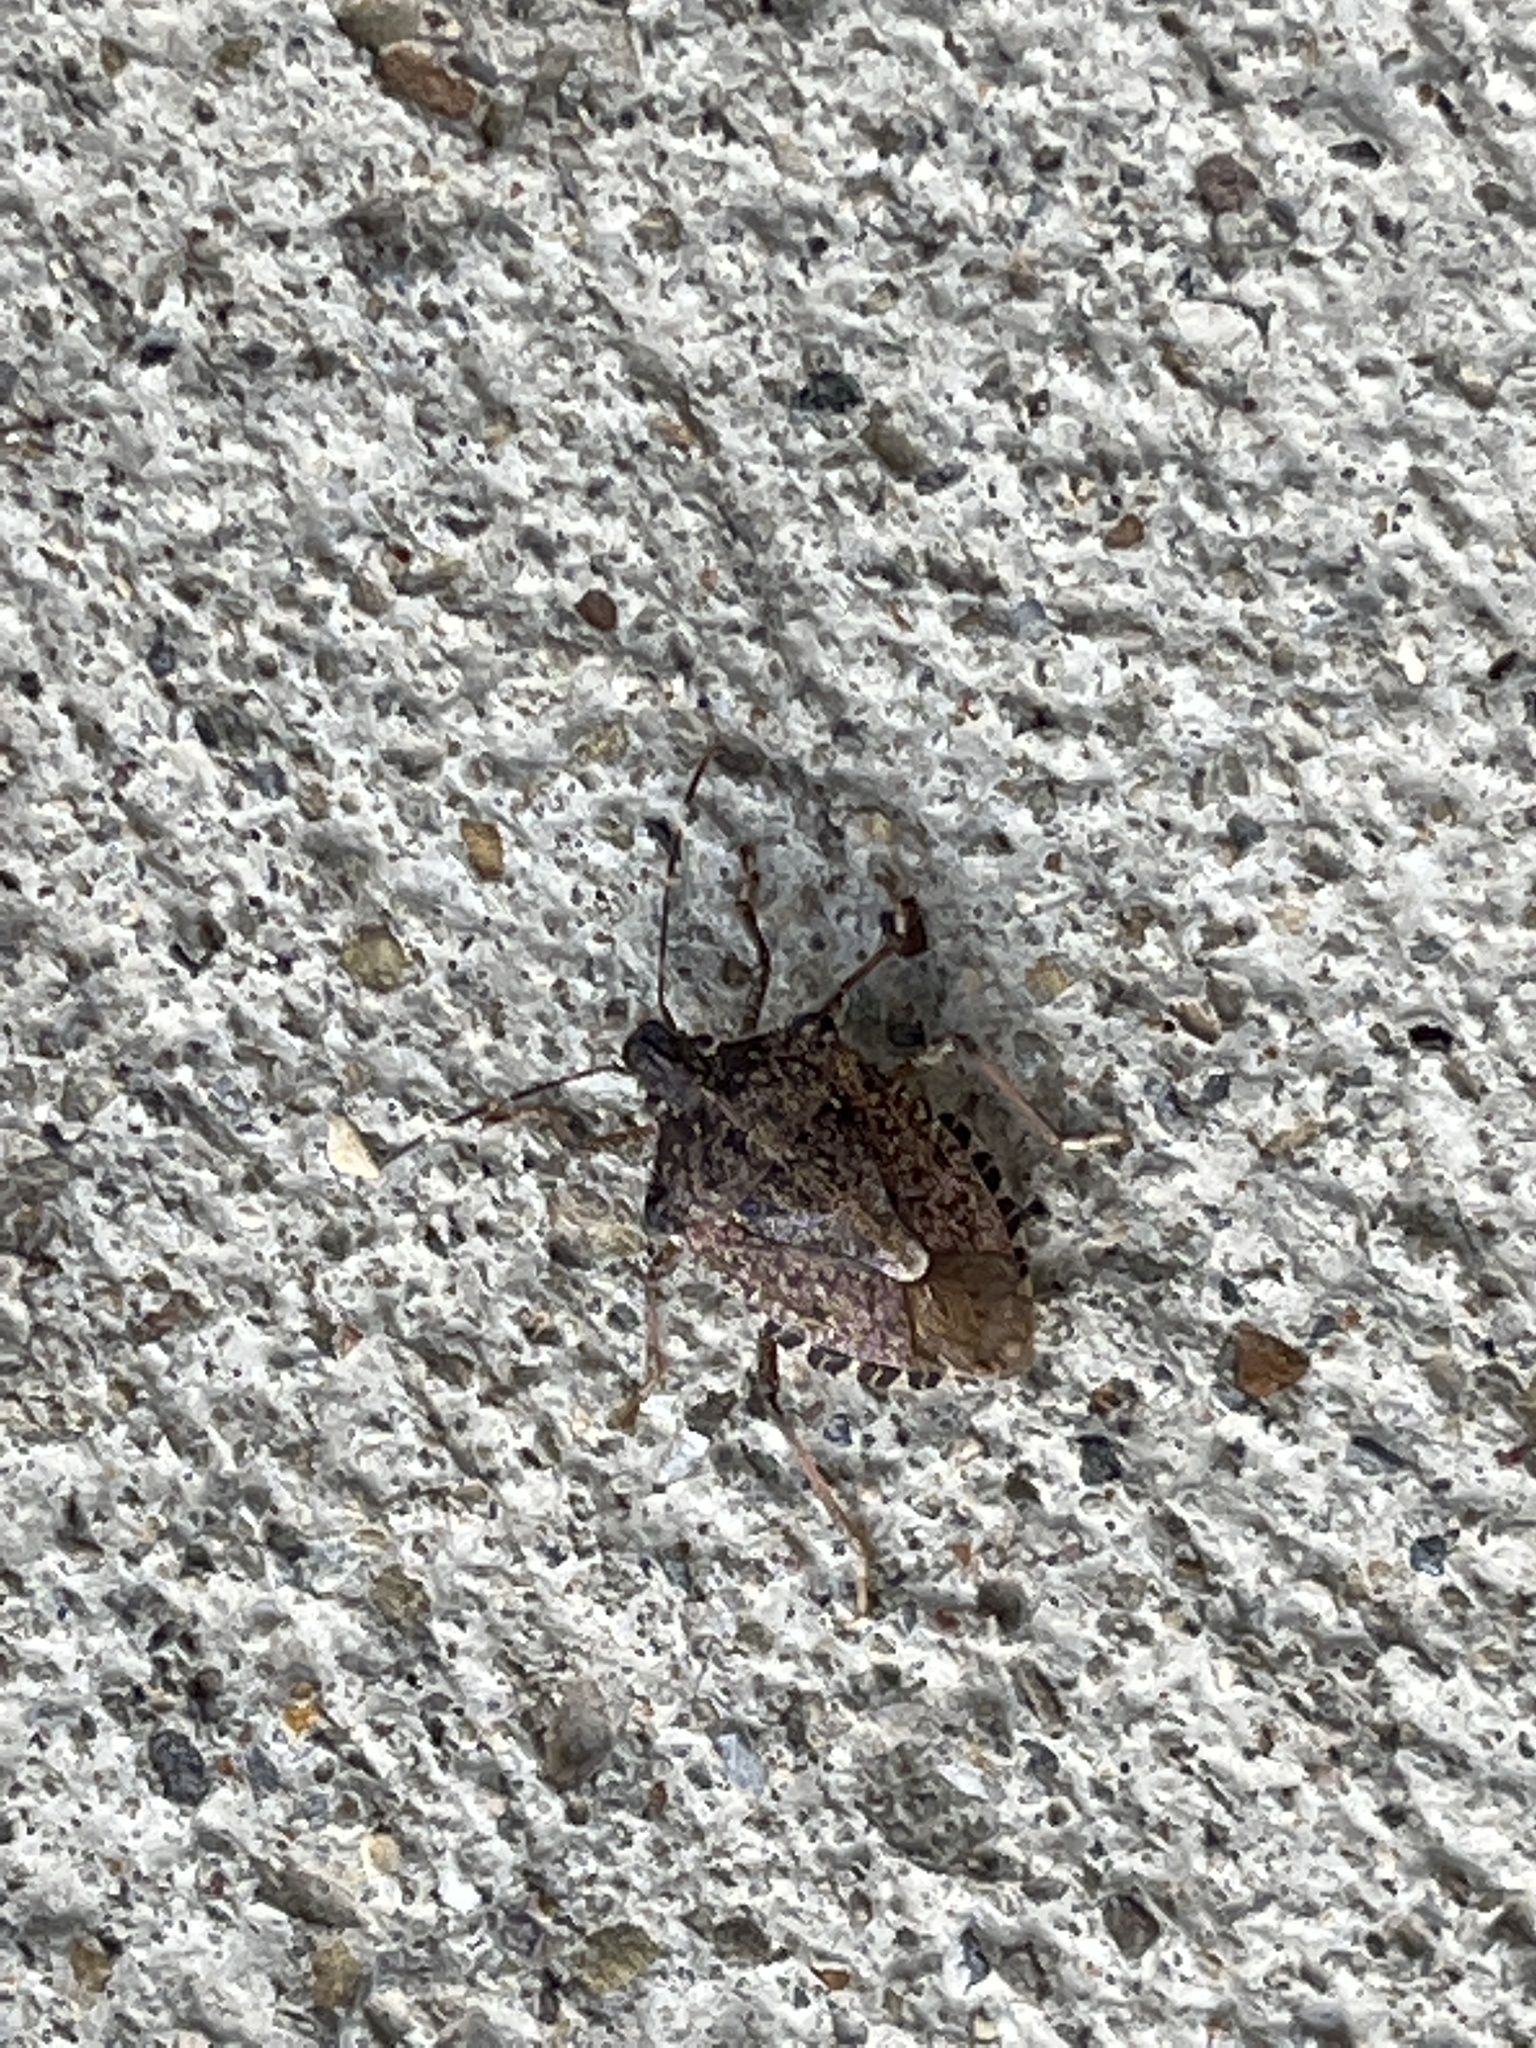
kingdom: Animalia
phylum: Arthropoda
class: Insecta
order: Hemiptera
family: Pentatomidae
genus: Halyomorpha
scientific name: Halyomorpha halys
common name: Brown marmorated stink bug
